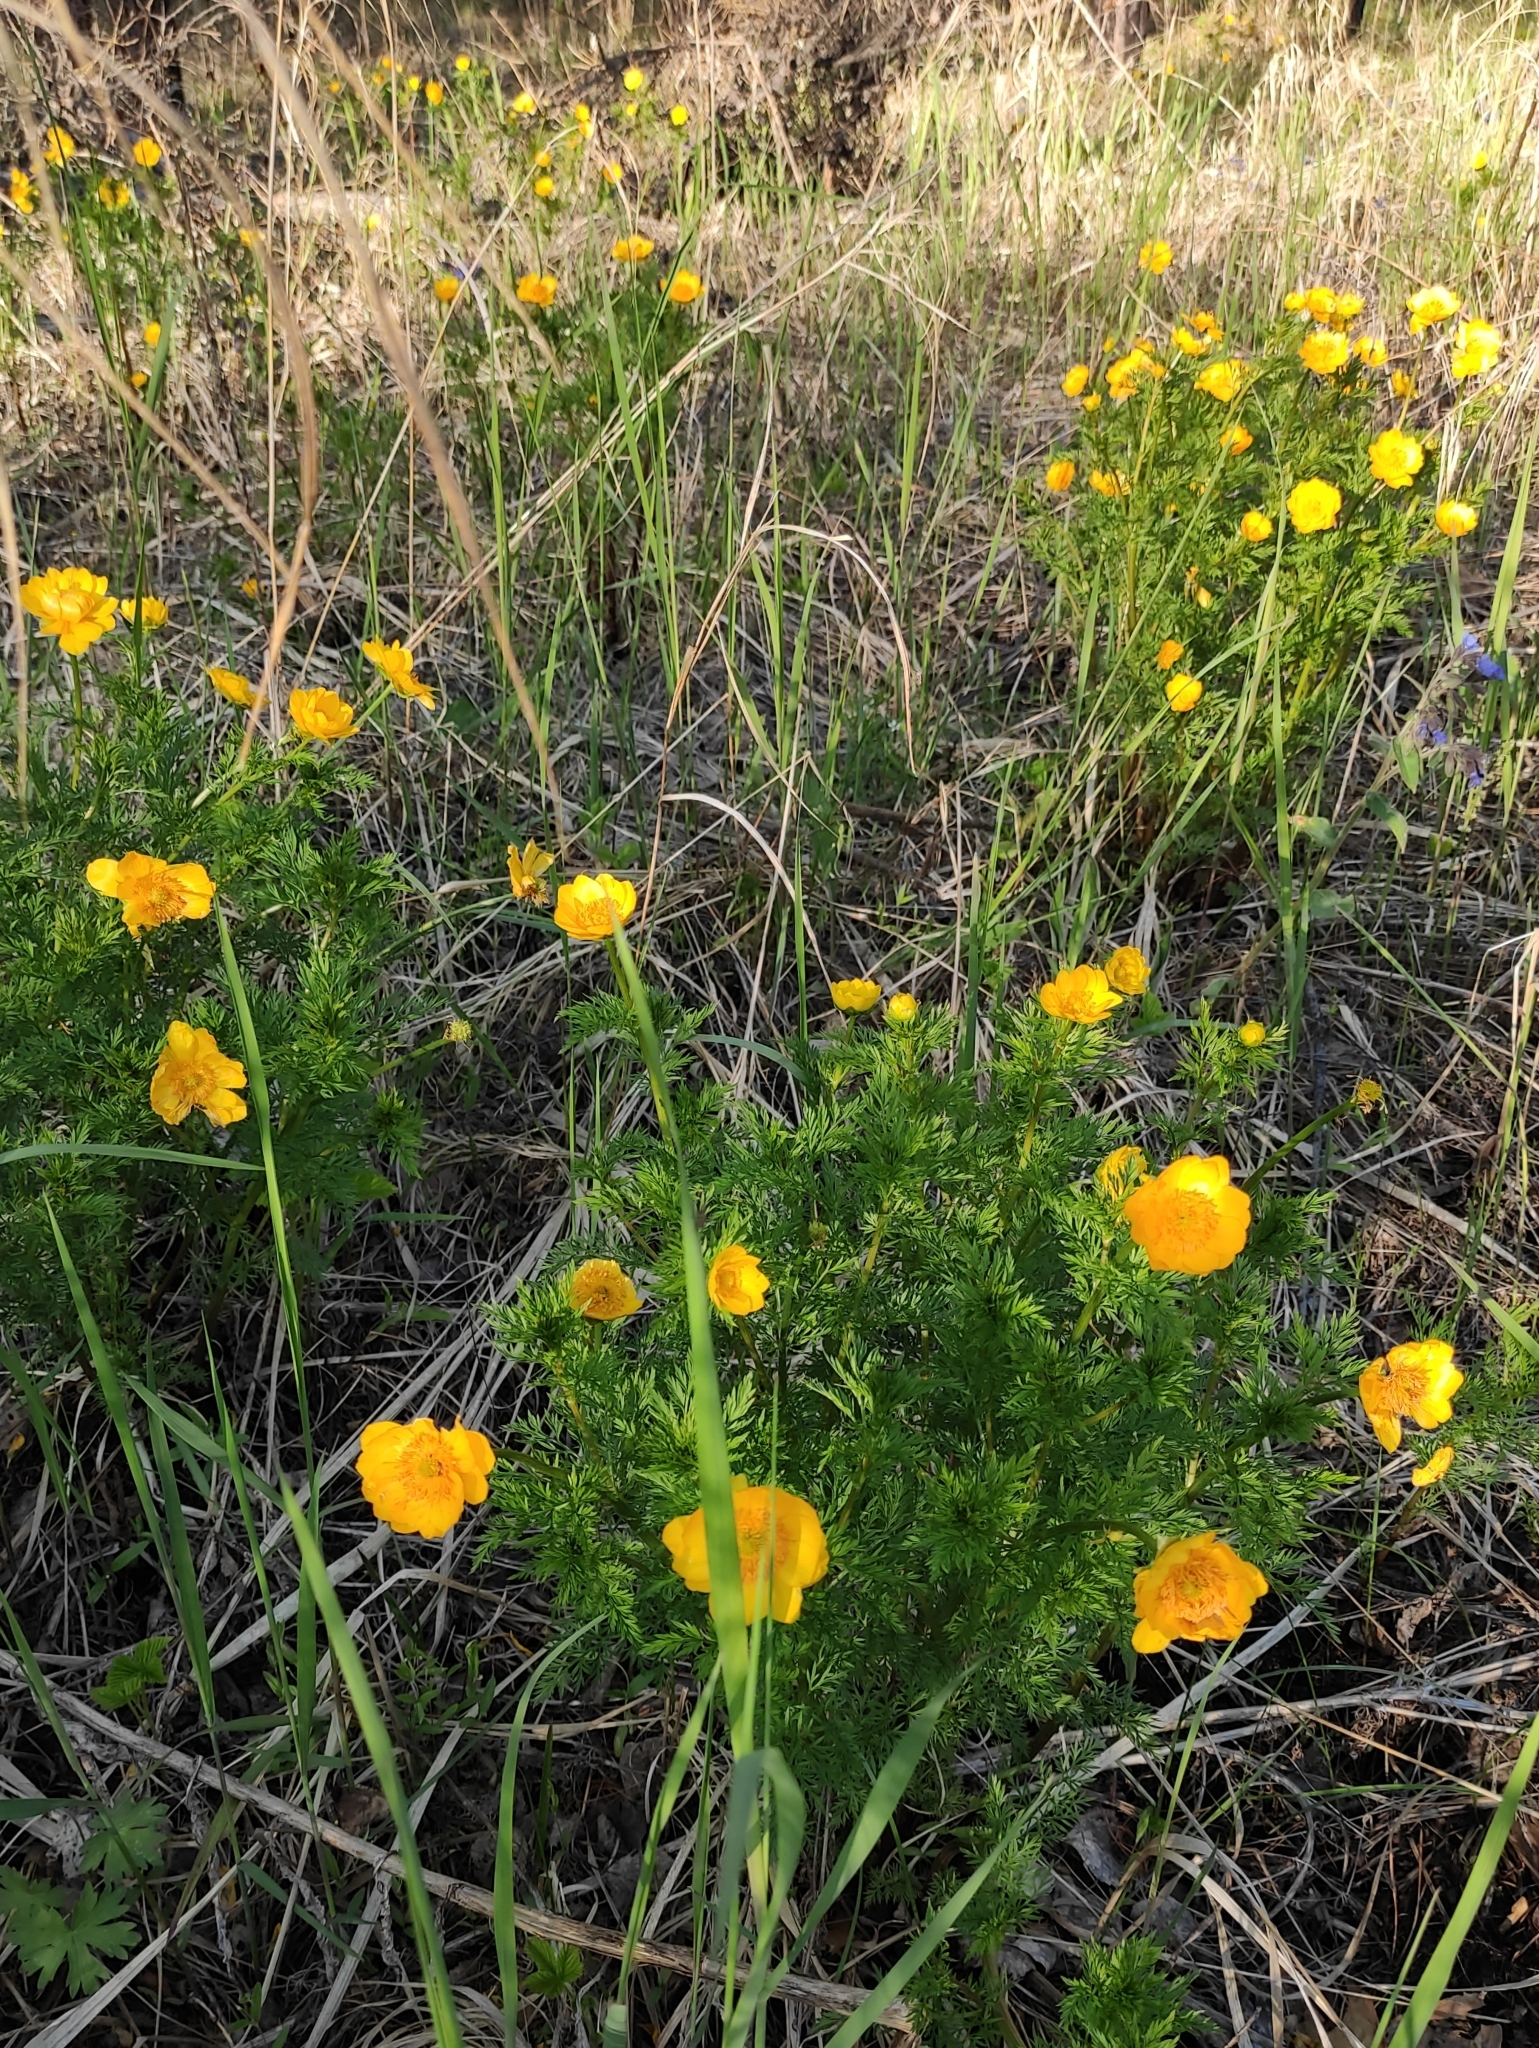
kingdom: Plantae
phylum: Tracheophyta
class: Magnoliopsida
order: Ranunculales
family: Ranunculaceae
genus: Adonis
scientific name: Adonis
